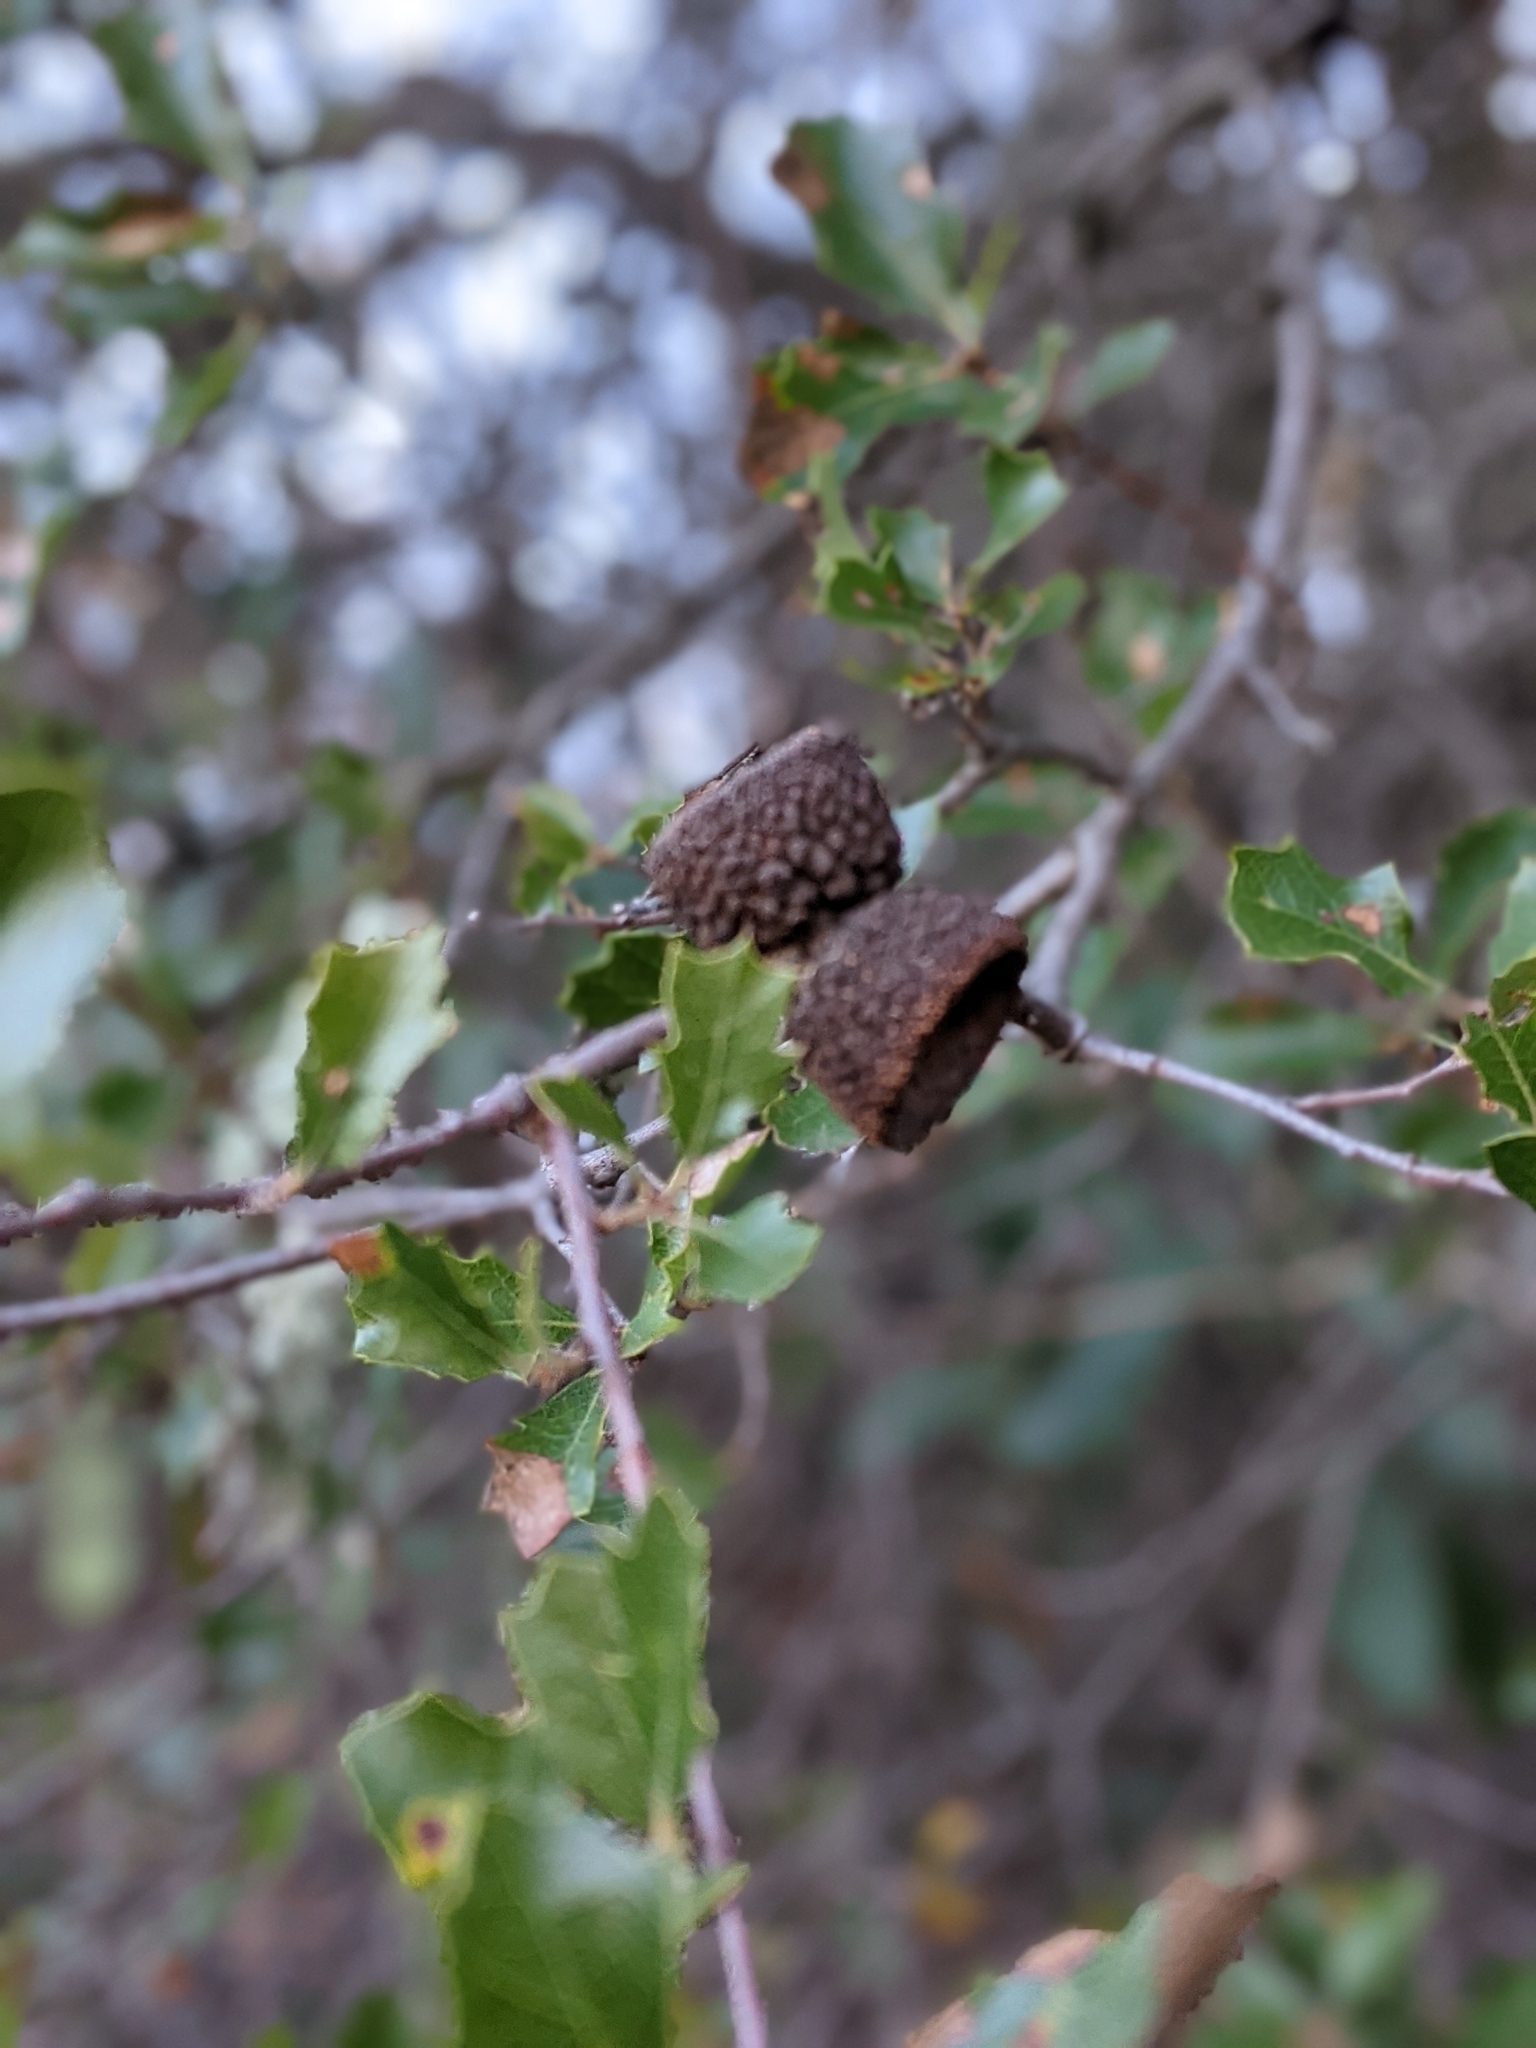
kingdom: Plantae
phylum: Tracheophyta
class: Magnoliopsida
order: Fagales
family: Fagaceae
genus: Quercus
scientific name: Quercus berberidifolia
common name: California scrub oak
